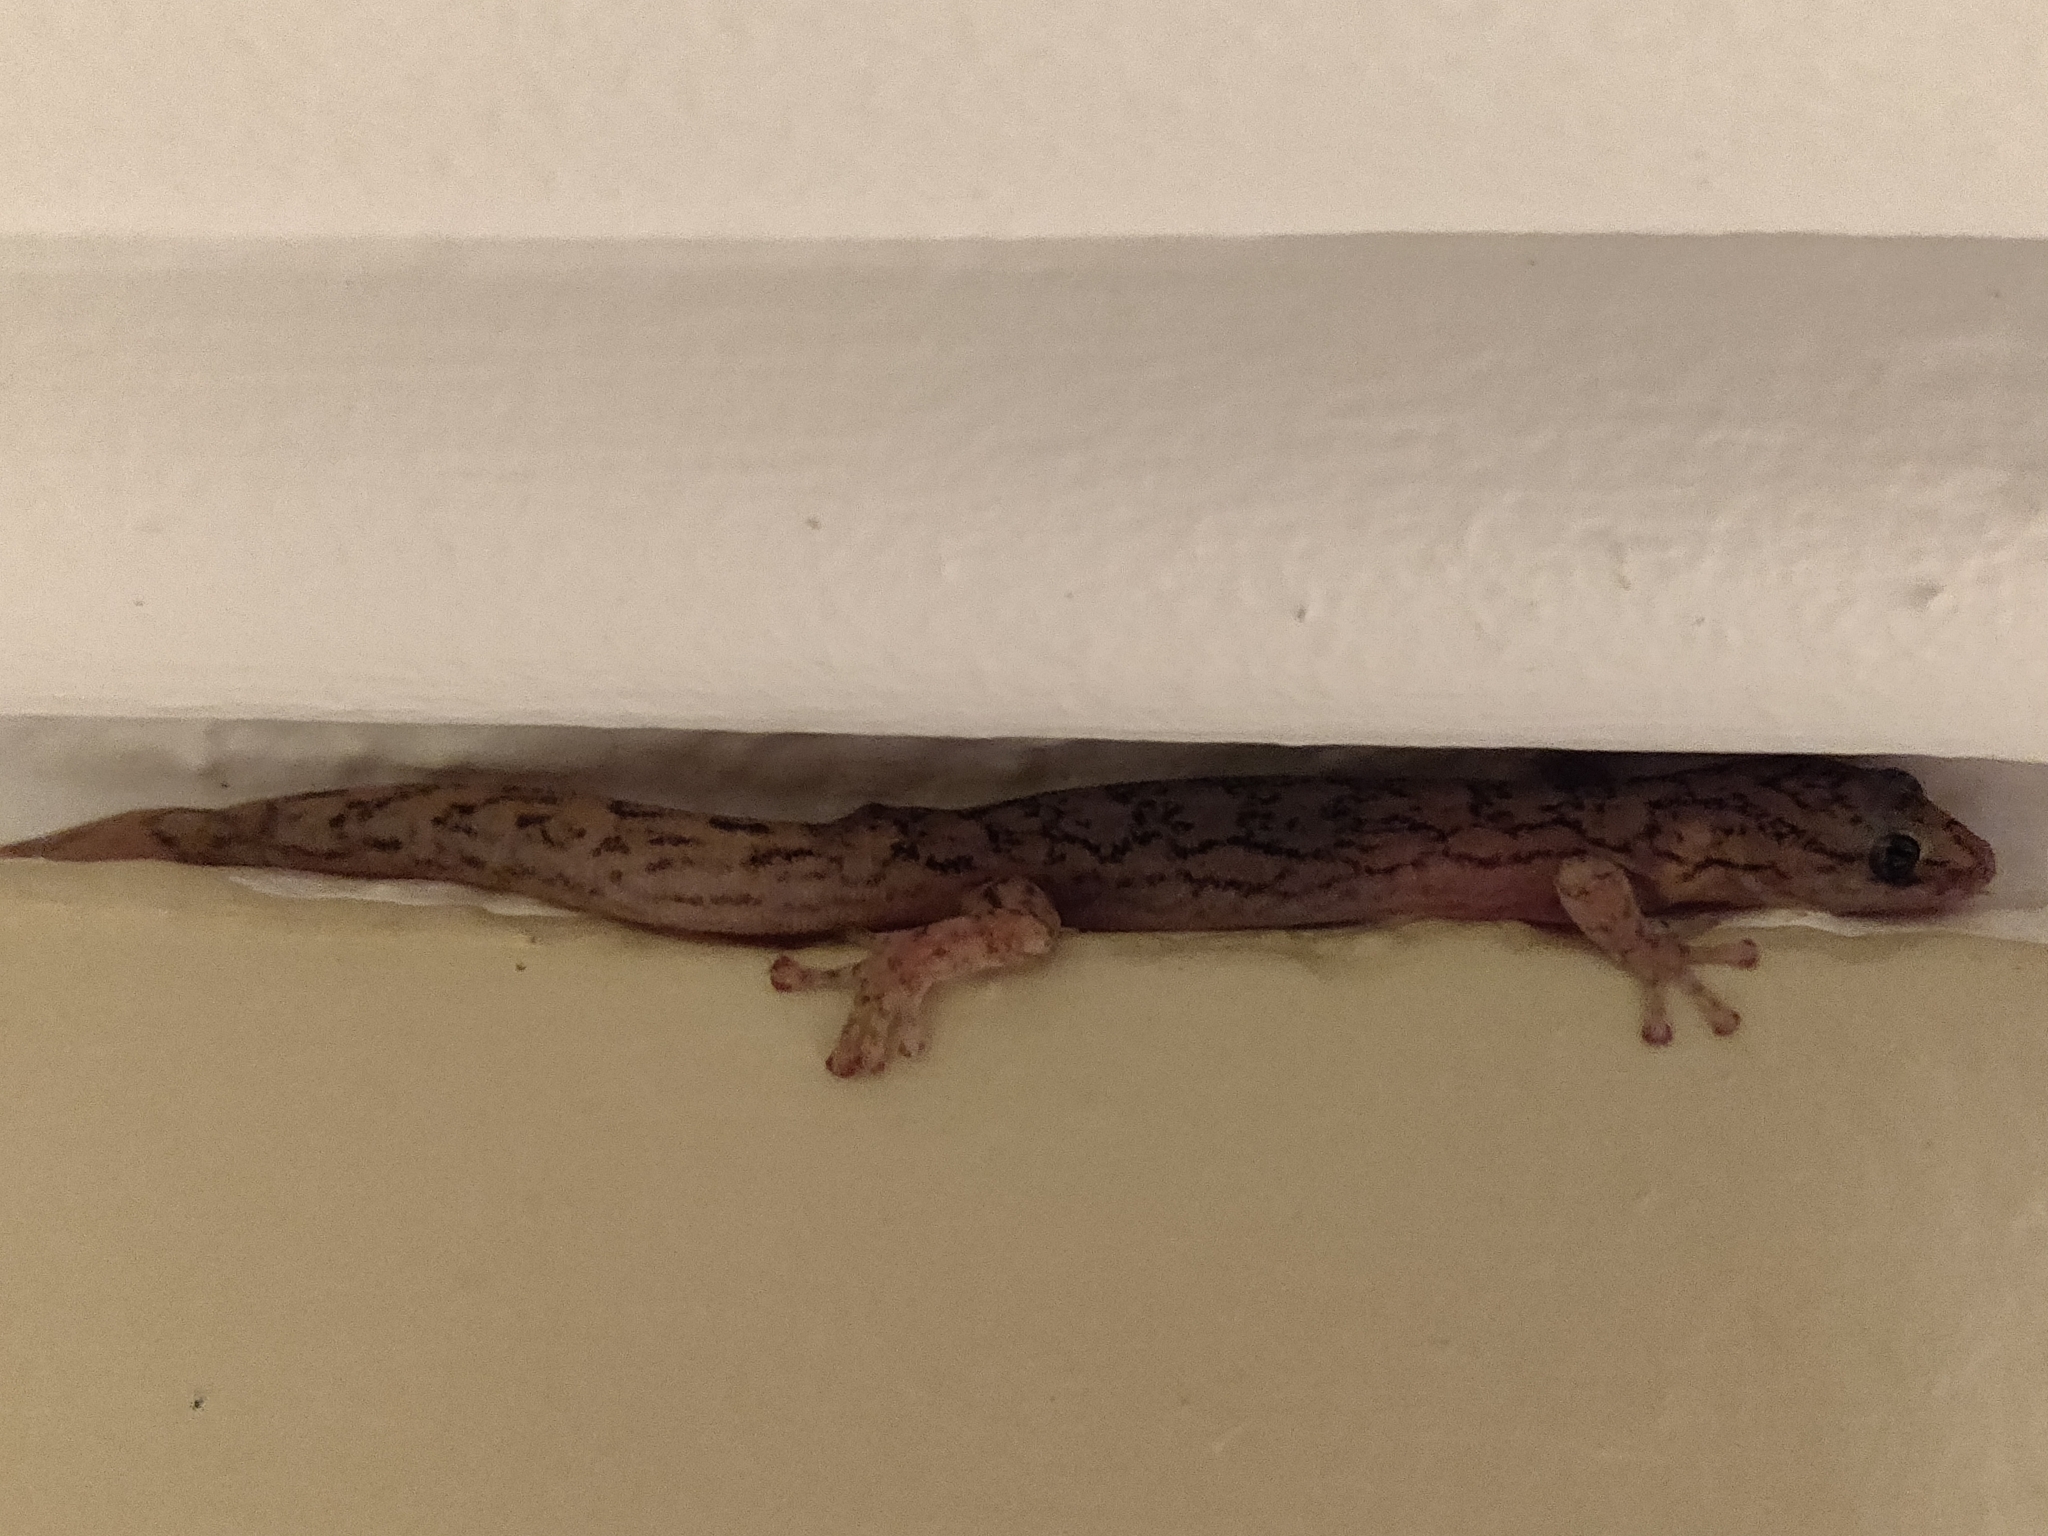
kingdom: Animalia
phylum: Chordata
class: Squamata
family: Gekkonidae
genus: Christinus
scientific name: Christinus marmoratus
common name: Marbled gecko
